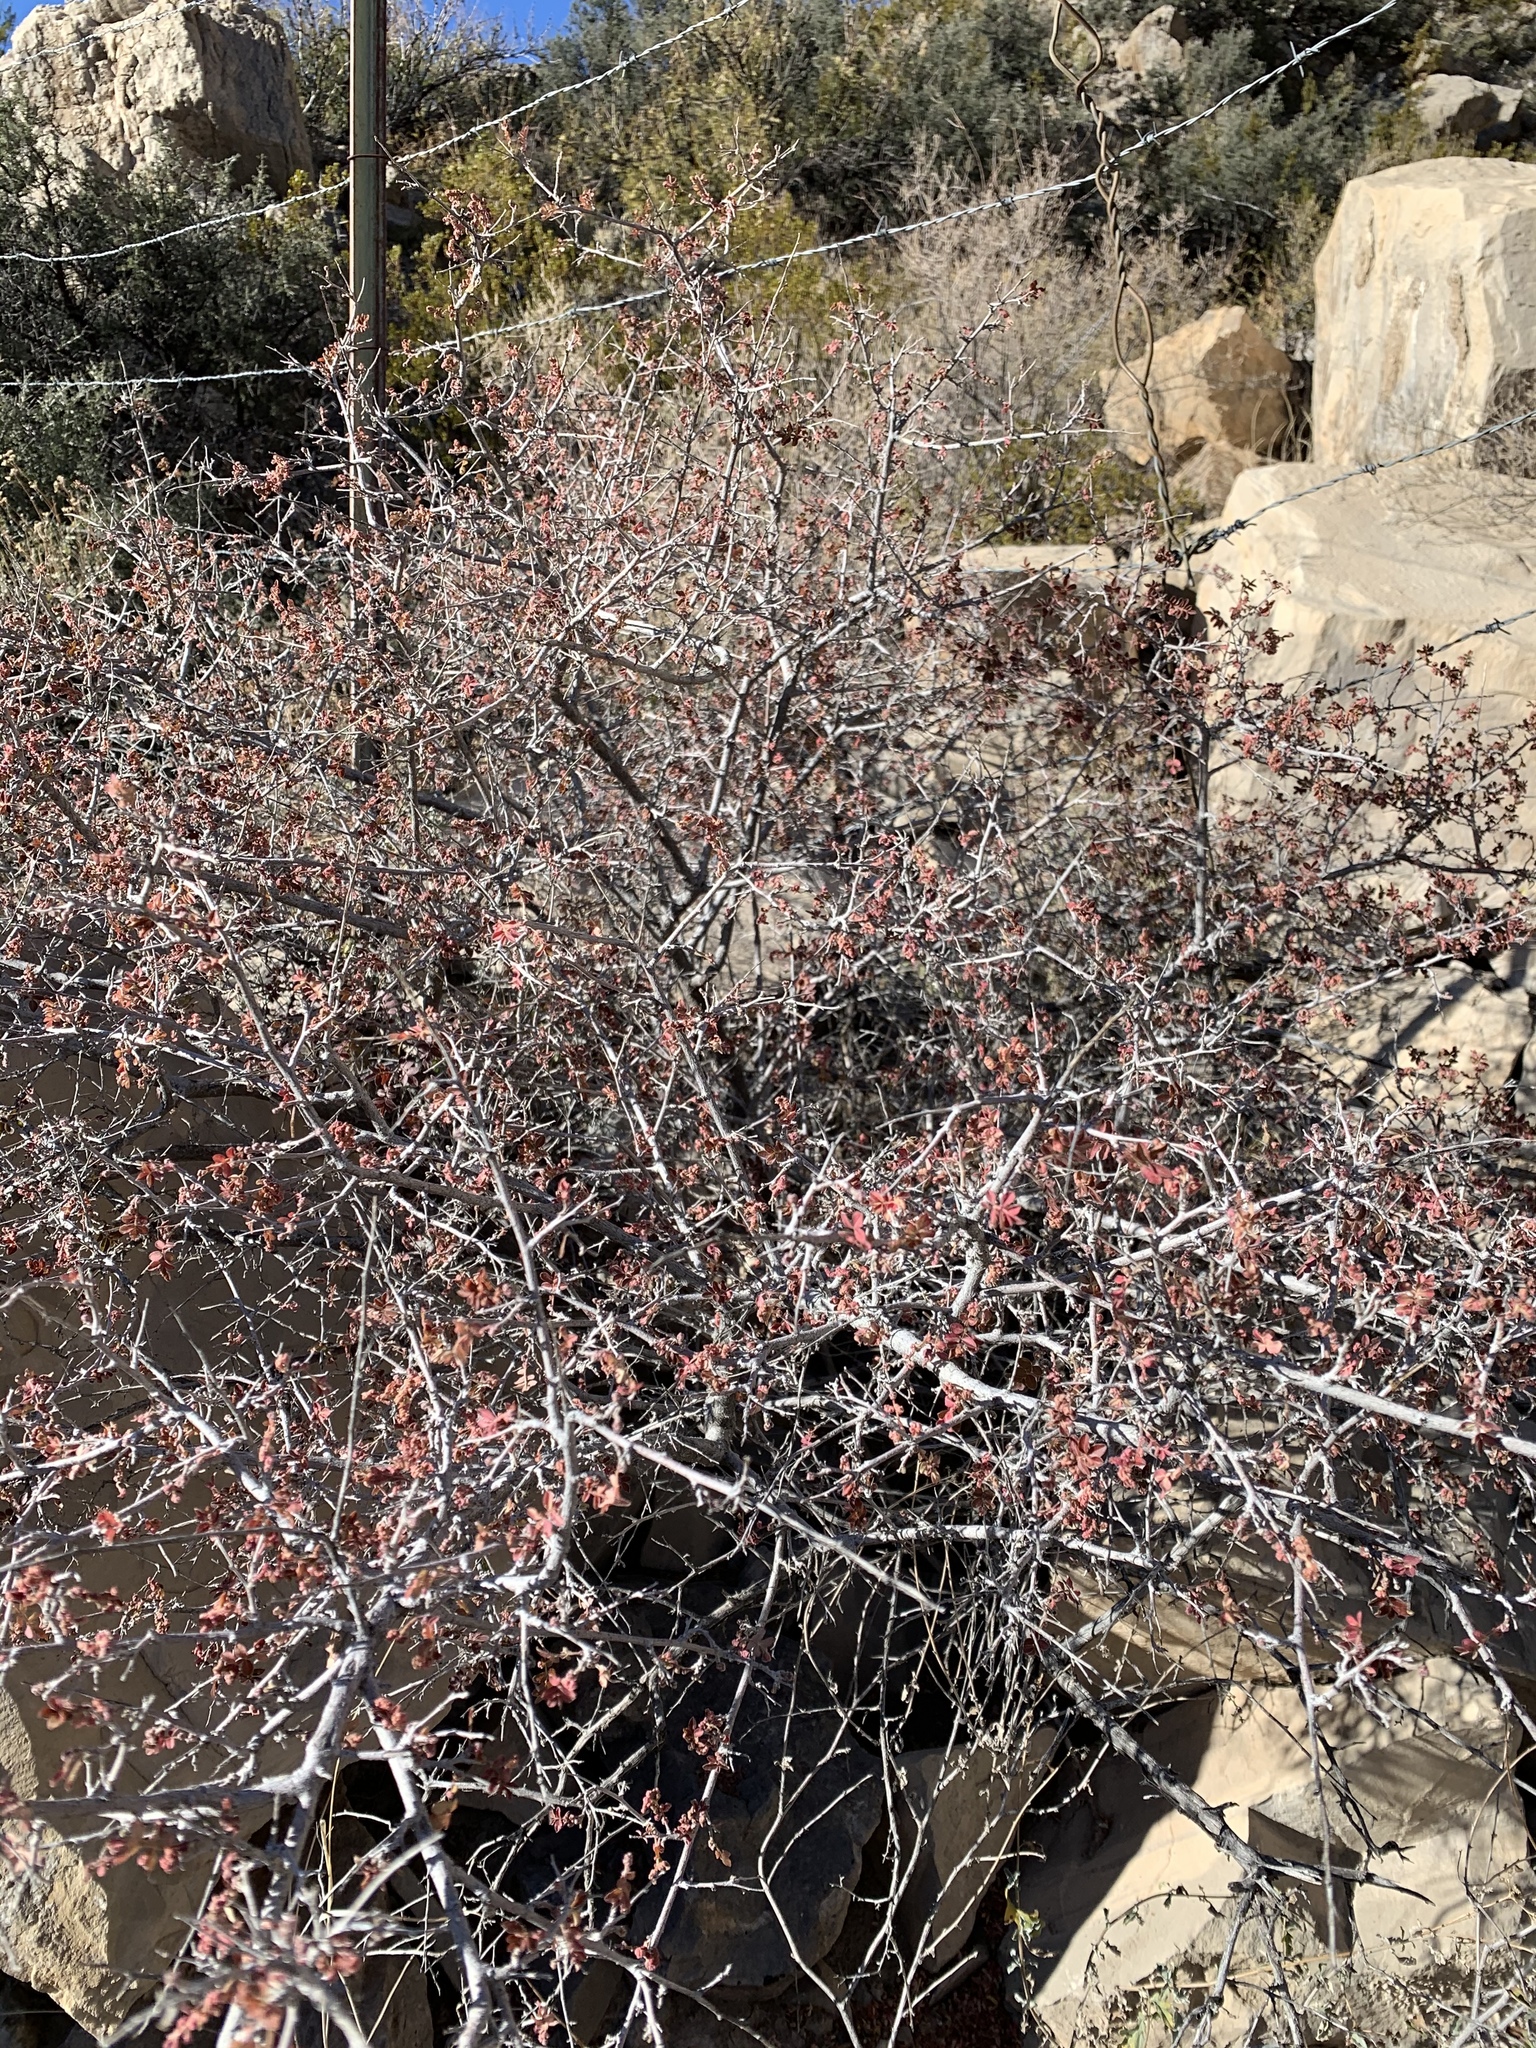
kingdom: Plantae
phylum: Tracheophyta
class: Magnoliopsida
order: Sapindales
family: Anacardiaceae
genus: Rhus
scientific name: Rhus microphylla
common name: Desert sumac
